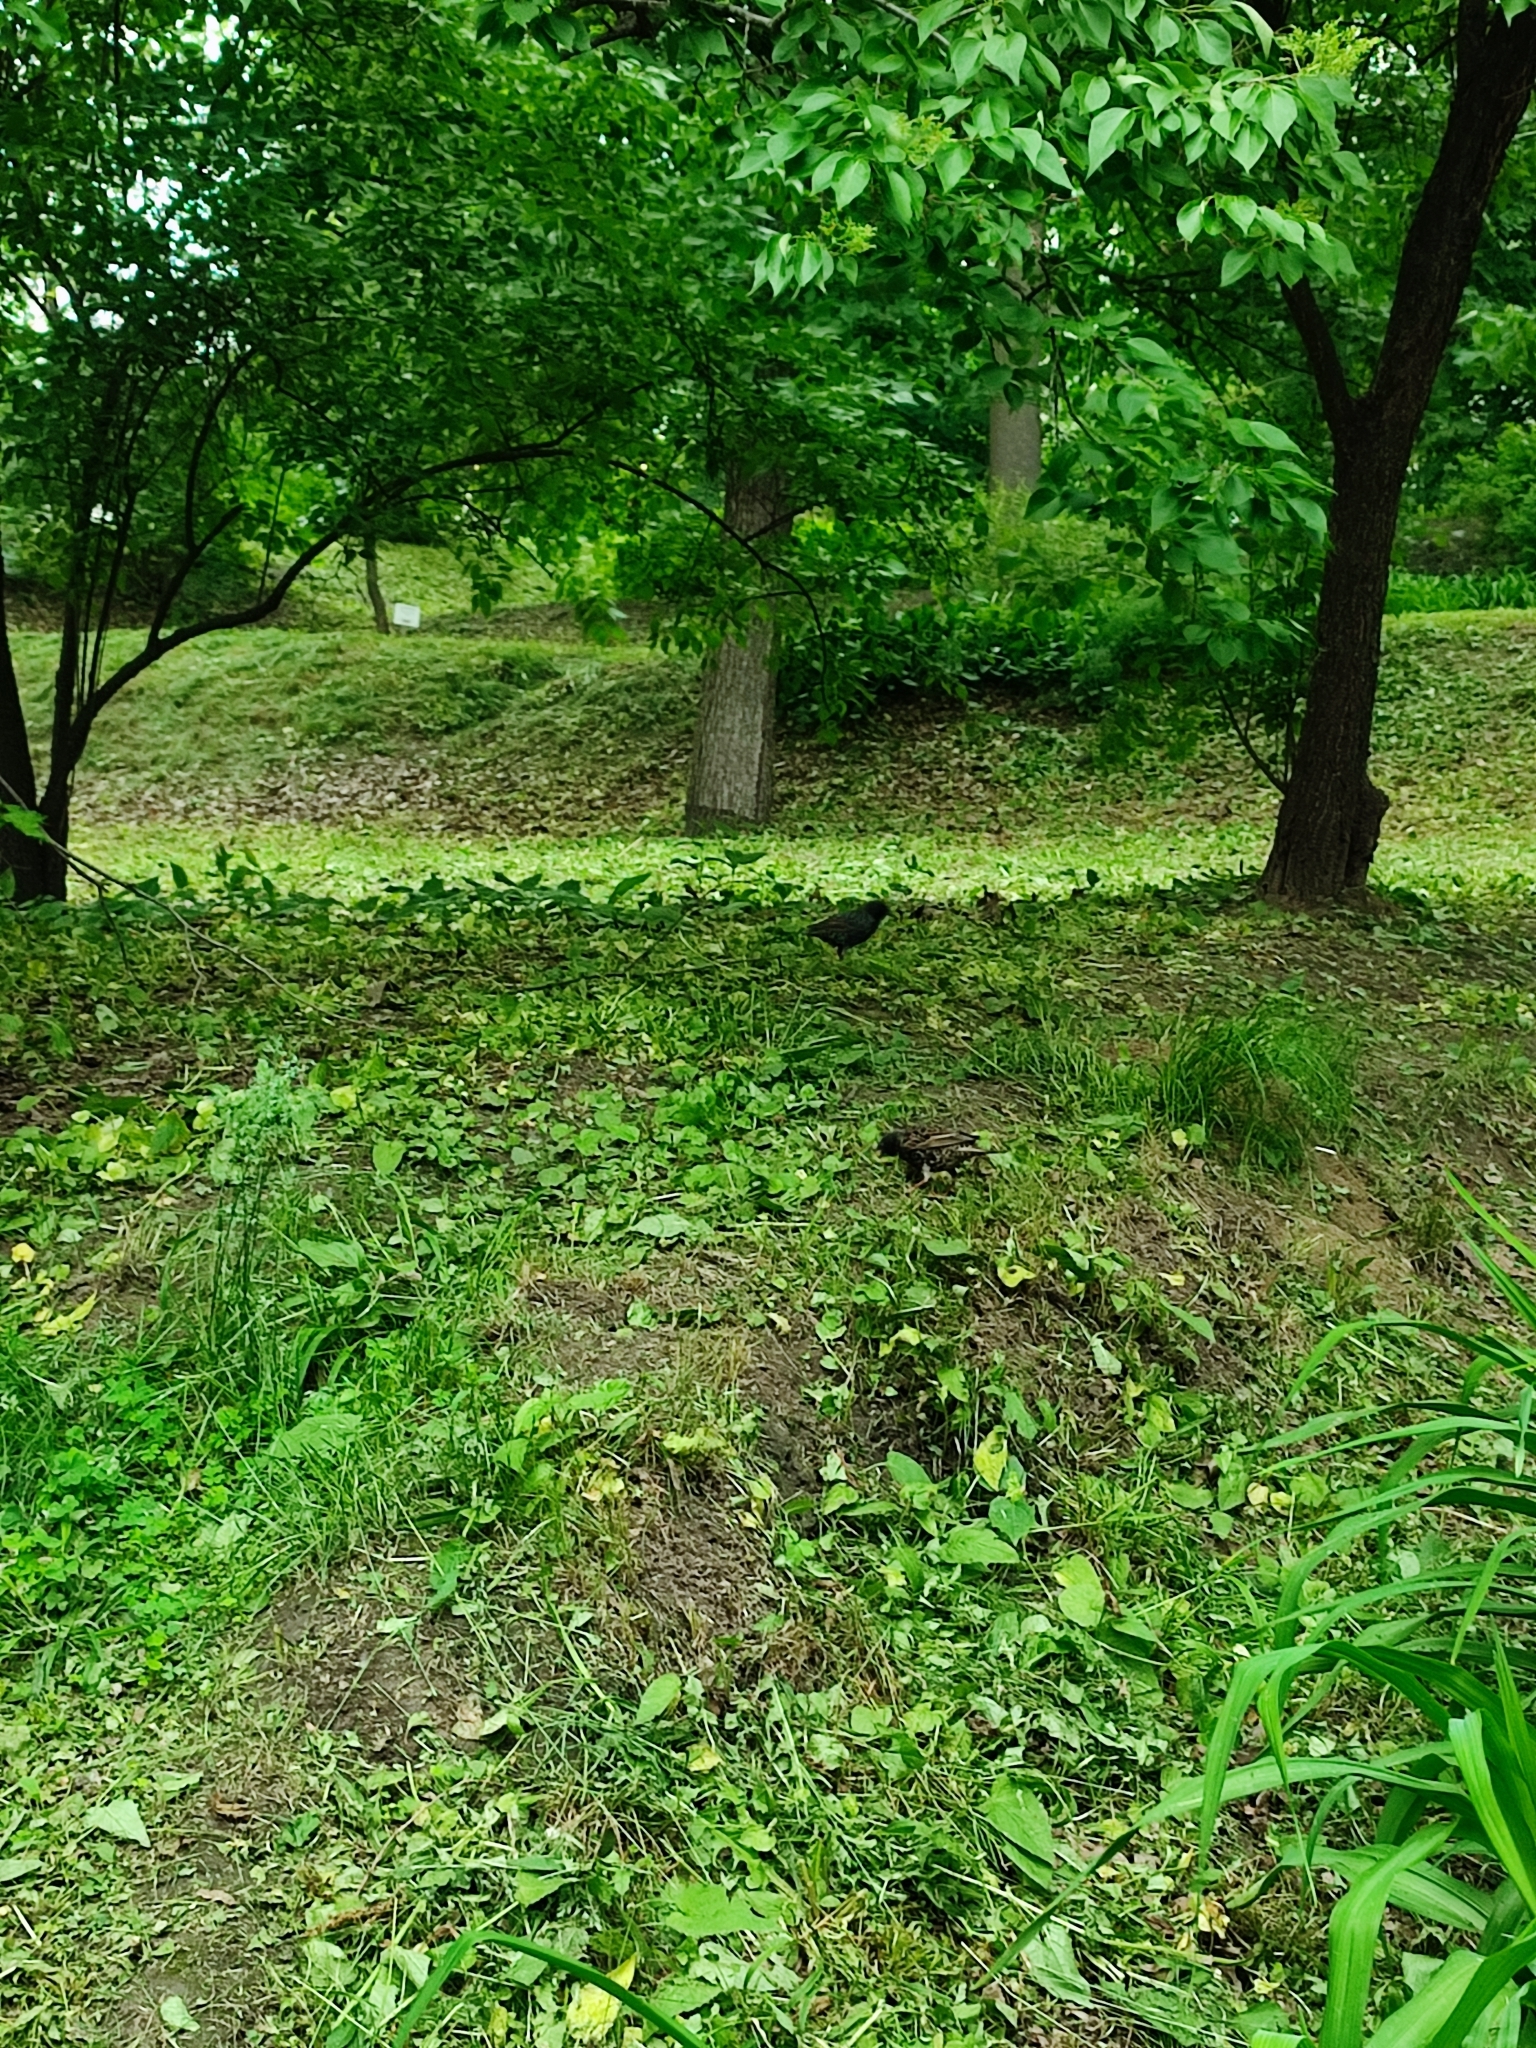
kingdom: Animalia
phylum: Chordata
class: Aves
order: Passeriformes
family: Sturnidae
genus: Sturnus
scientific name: Sturnus vulgaris
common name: Common starling
